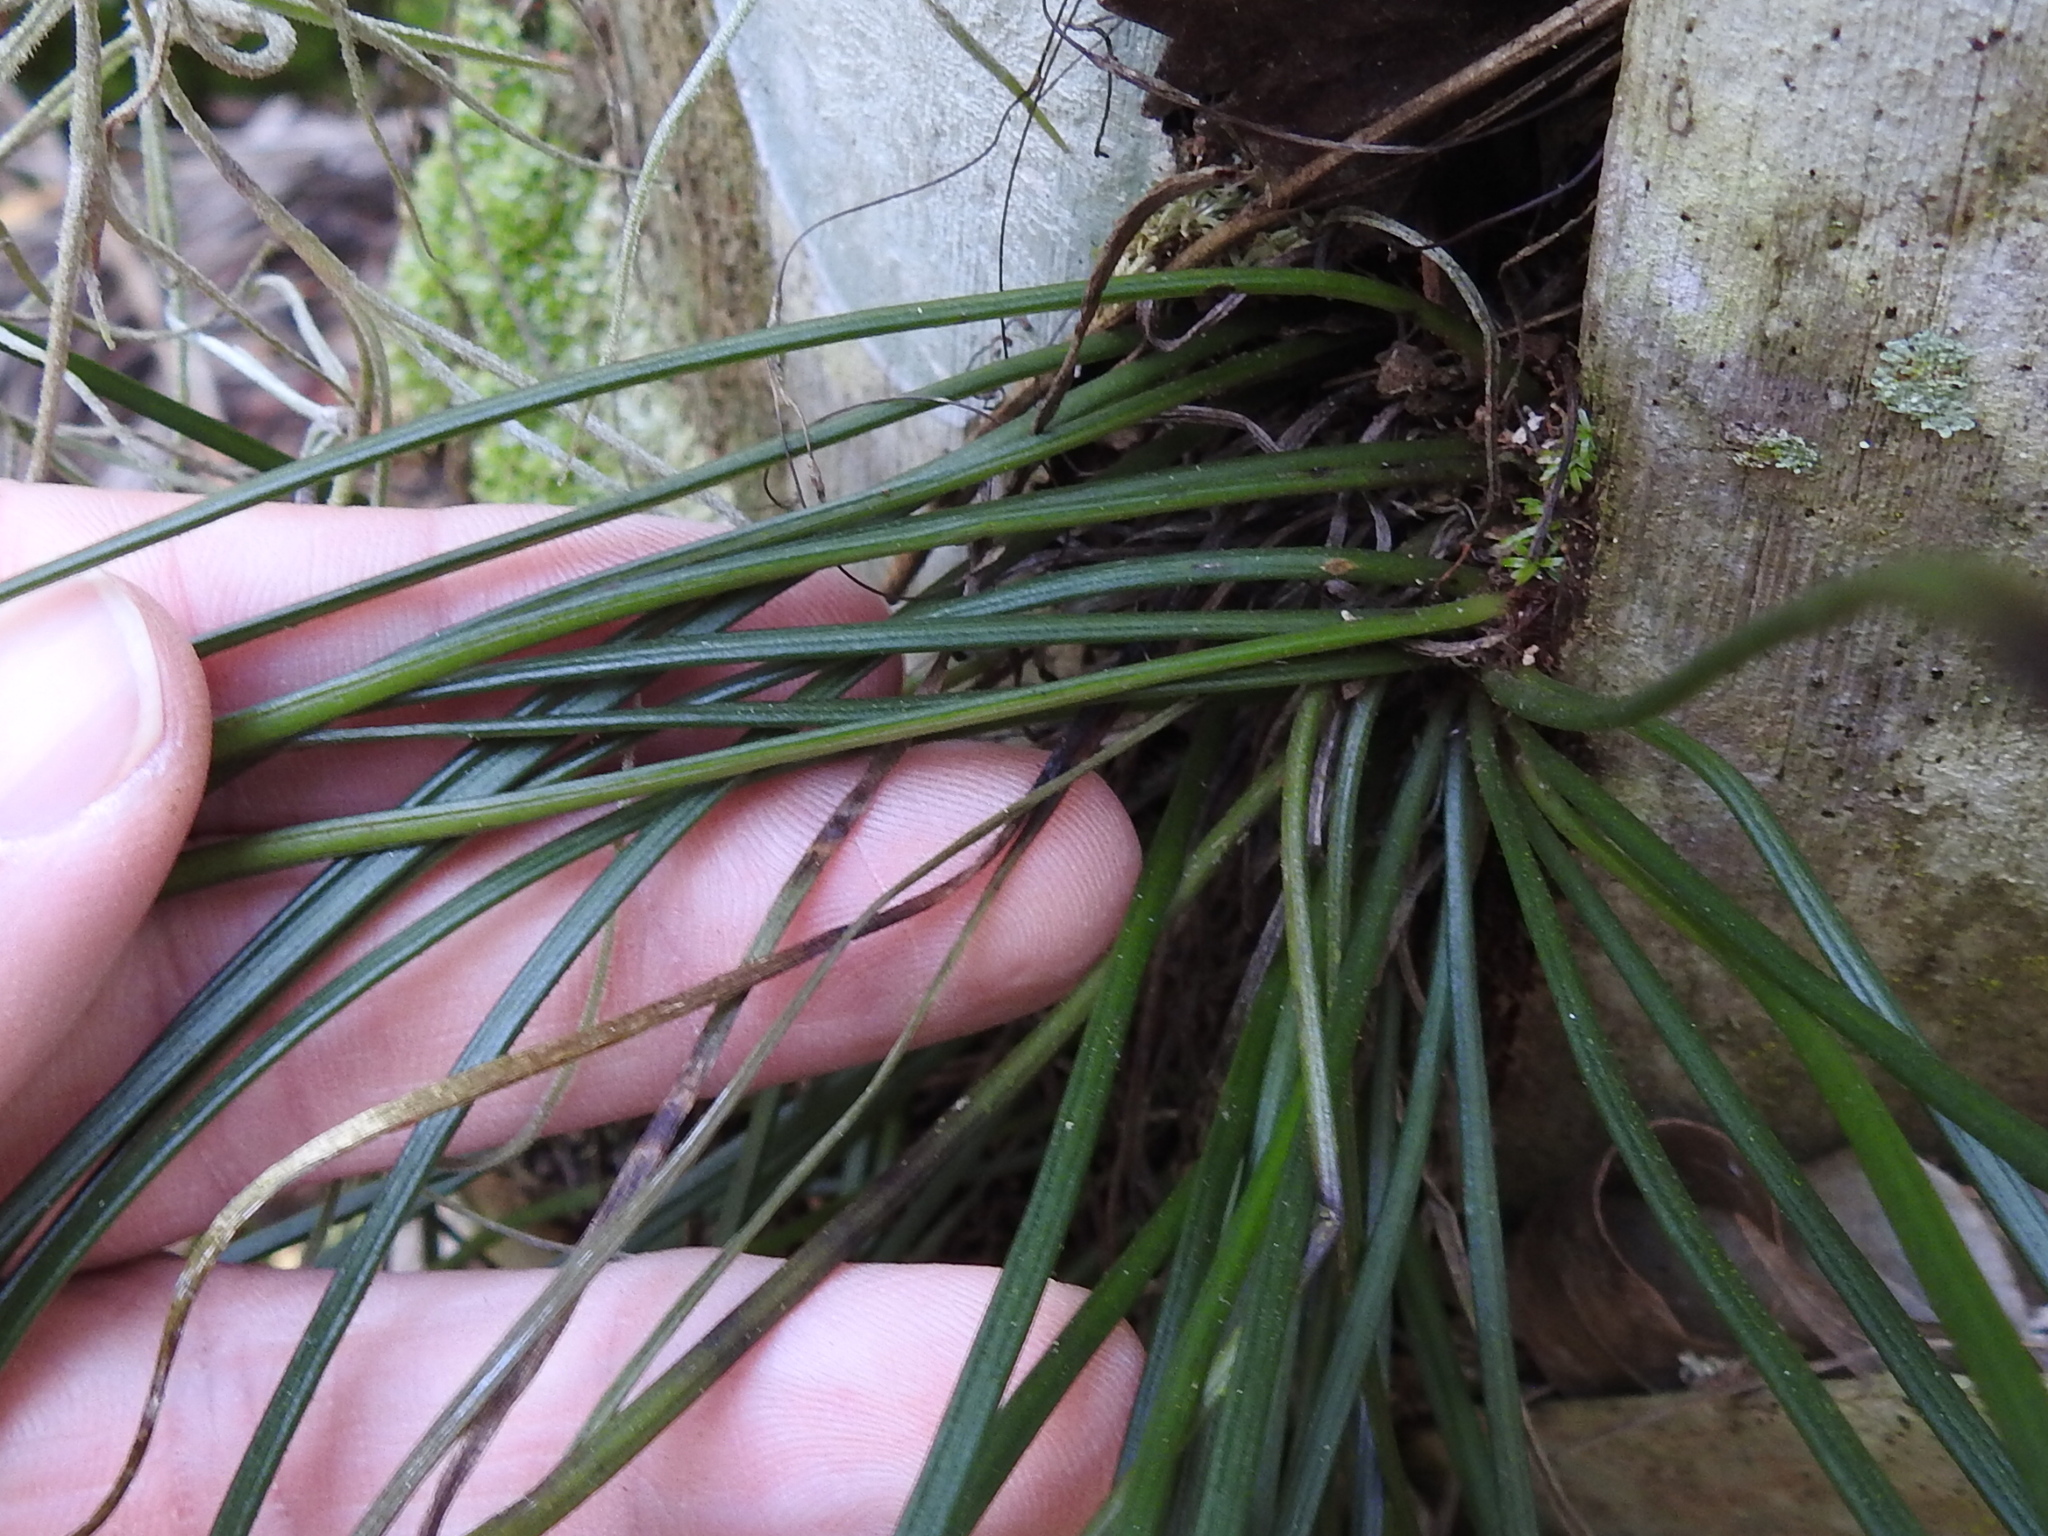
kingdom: Plantae
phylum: Tracheophyta
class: Polypodiopsida
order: Polypodiales
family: Pteridaceae
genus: Vittaria
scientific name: Vittaria lineata
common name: Shoestring fern
